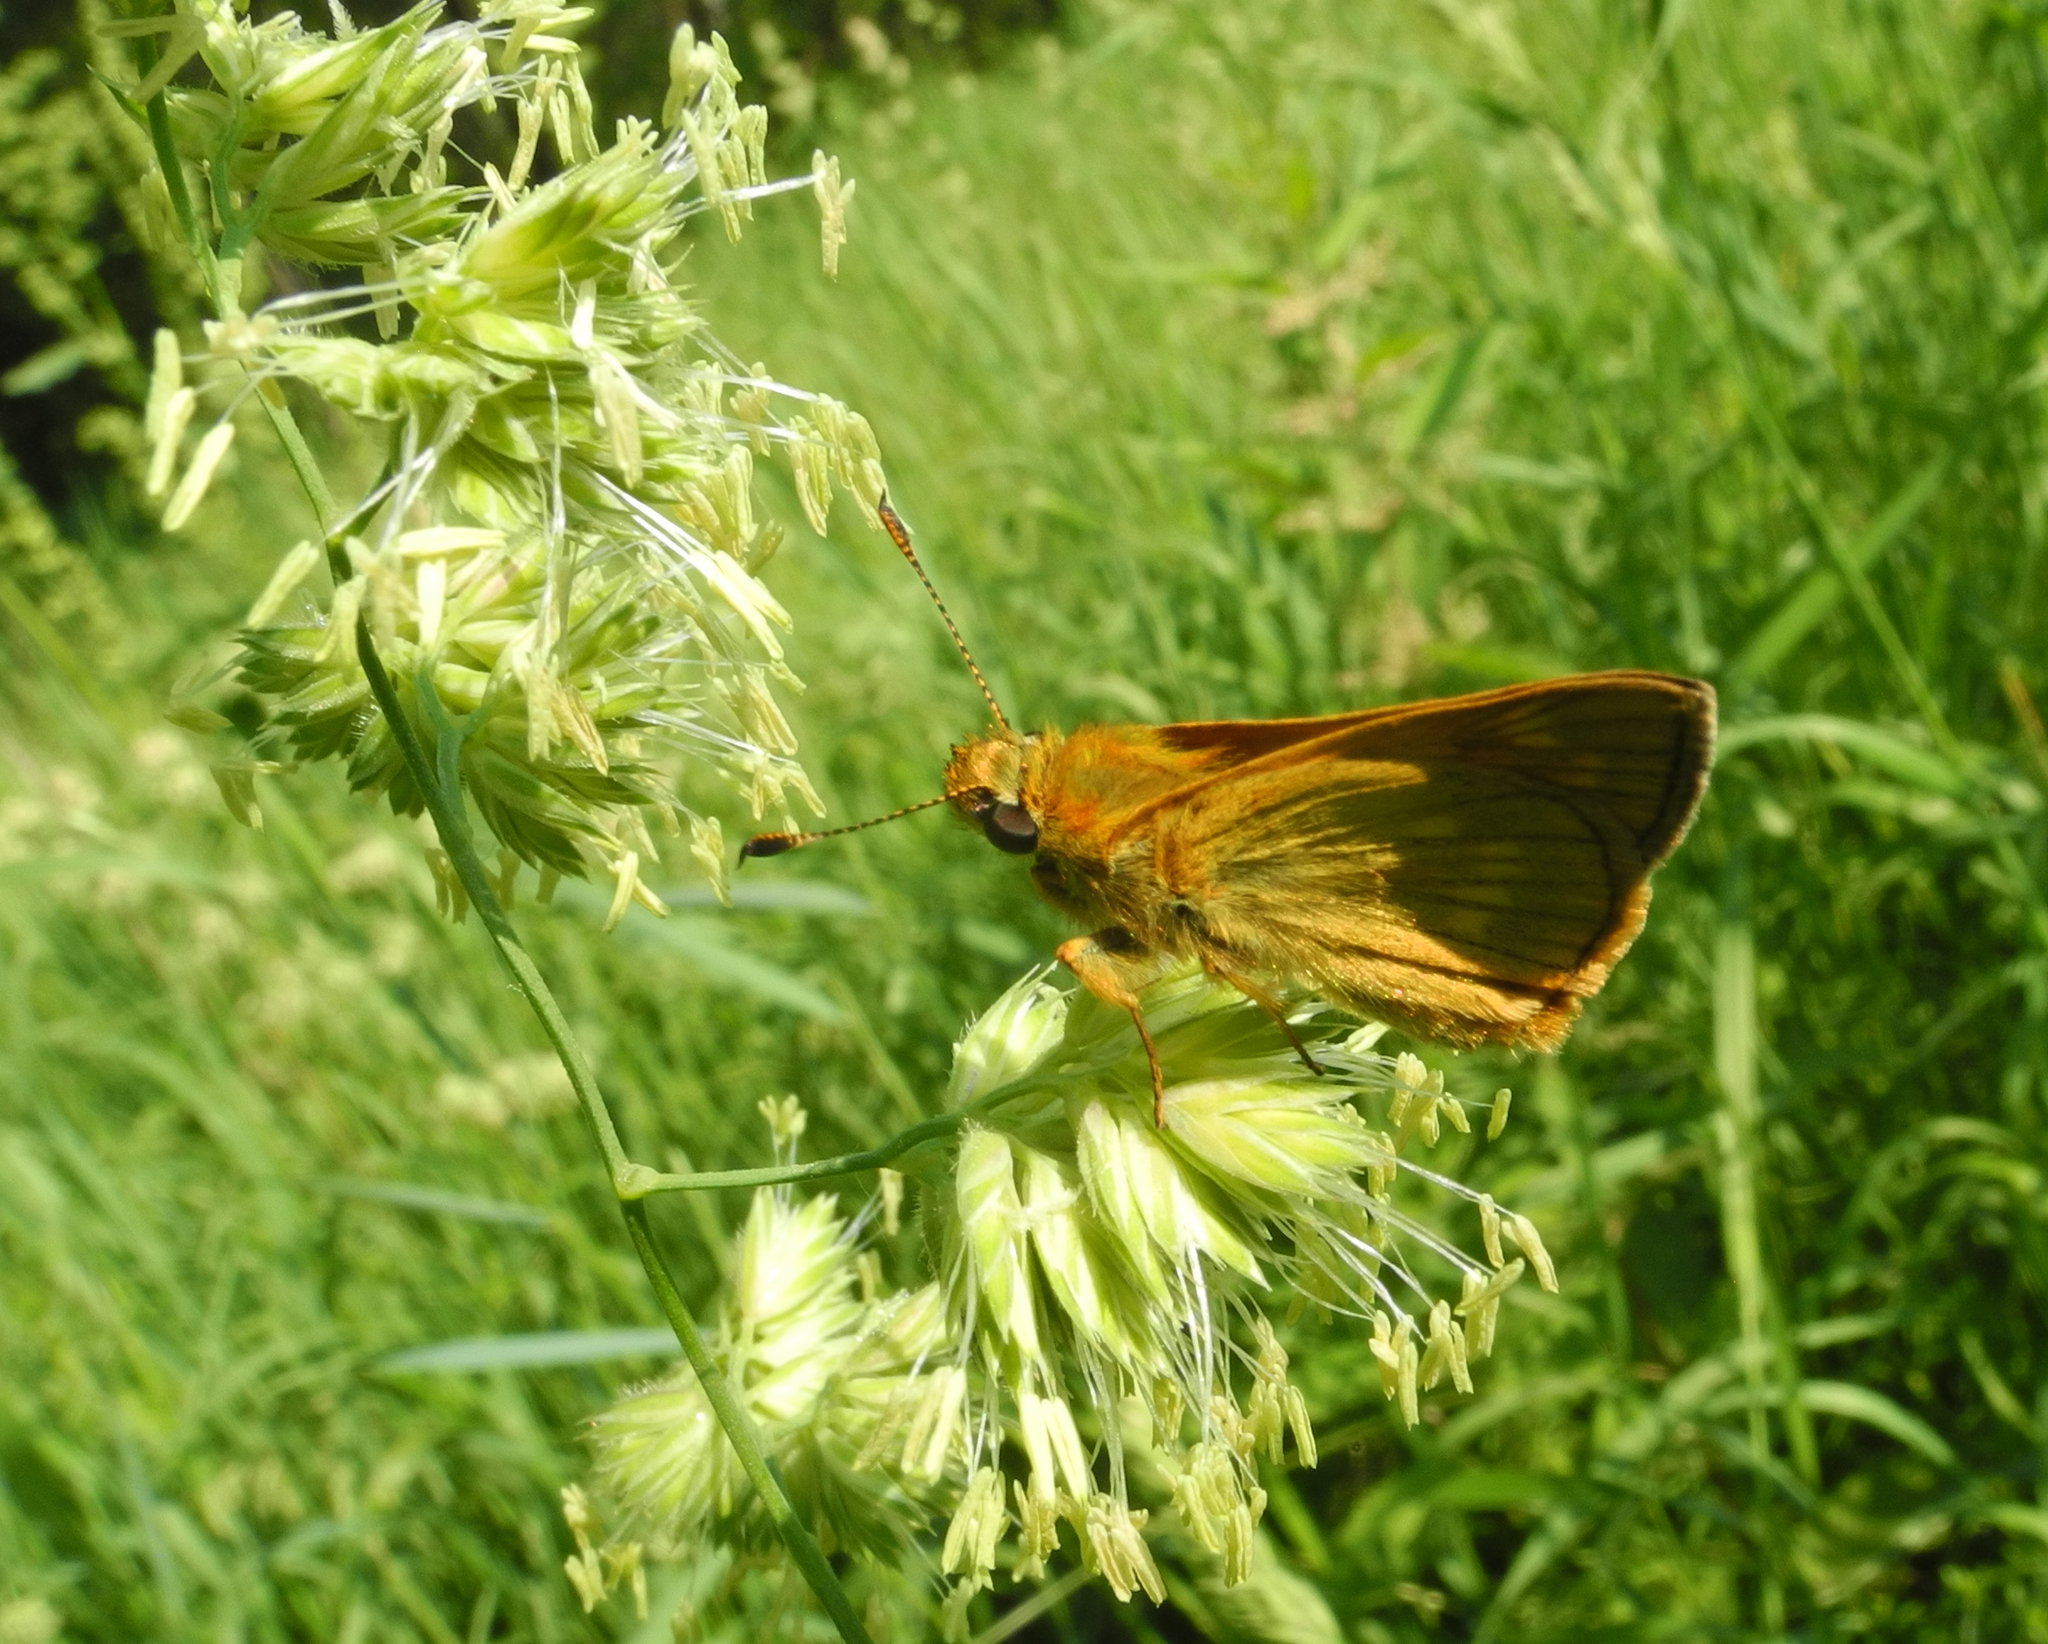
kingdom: Animalia
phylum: Arthropoda
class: Insecta
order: Lepidoptera
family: Hesperiidae
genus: Ochlodes
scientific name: Ochlodes venata
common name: Large skipper
